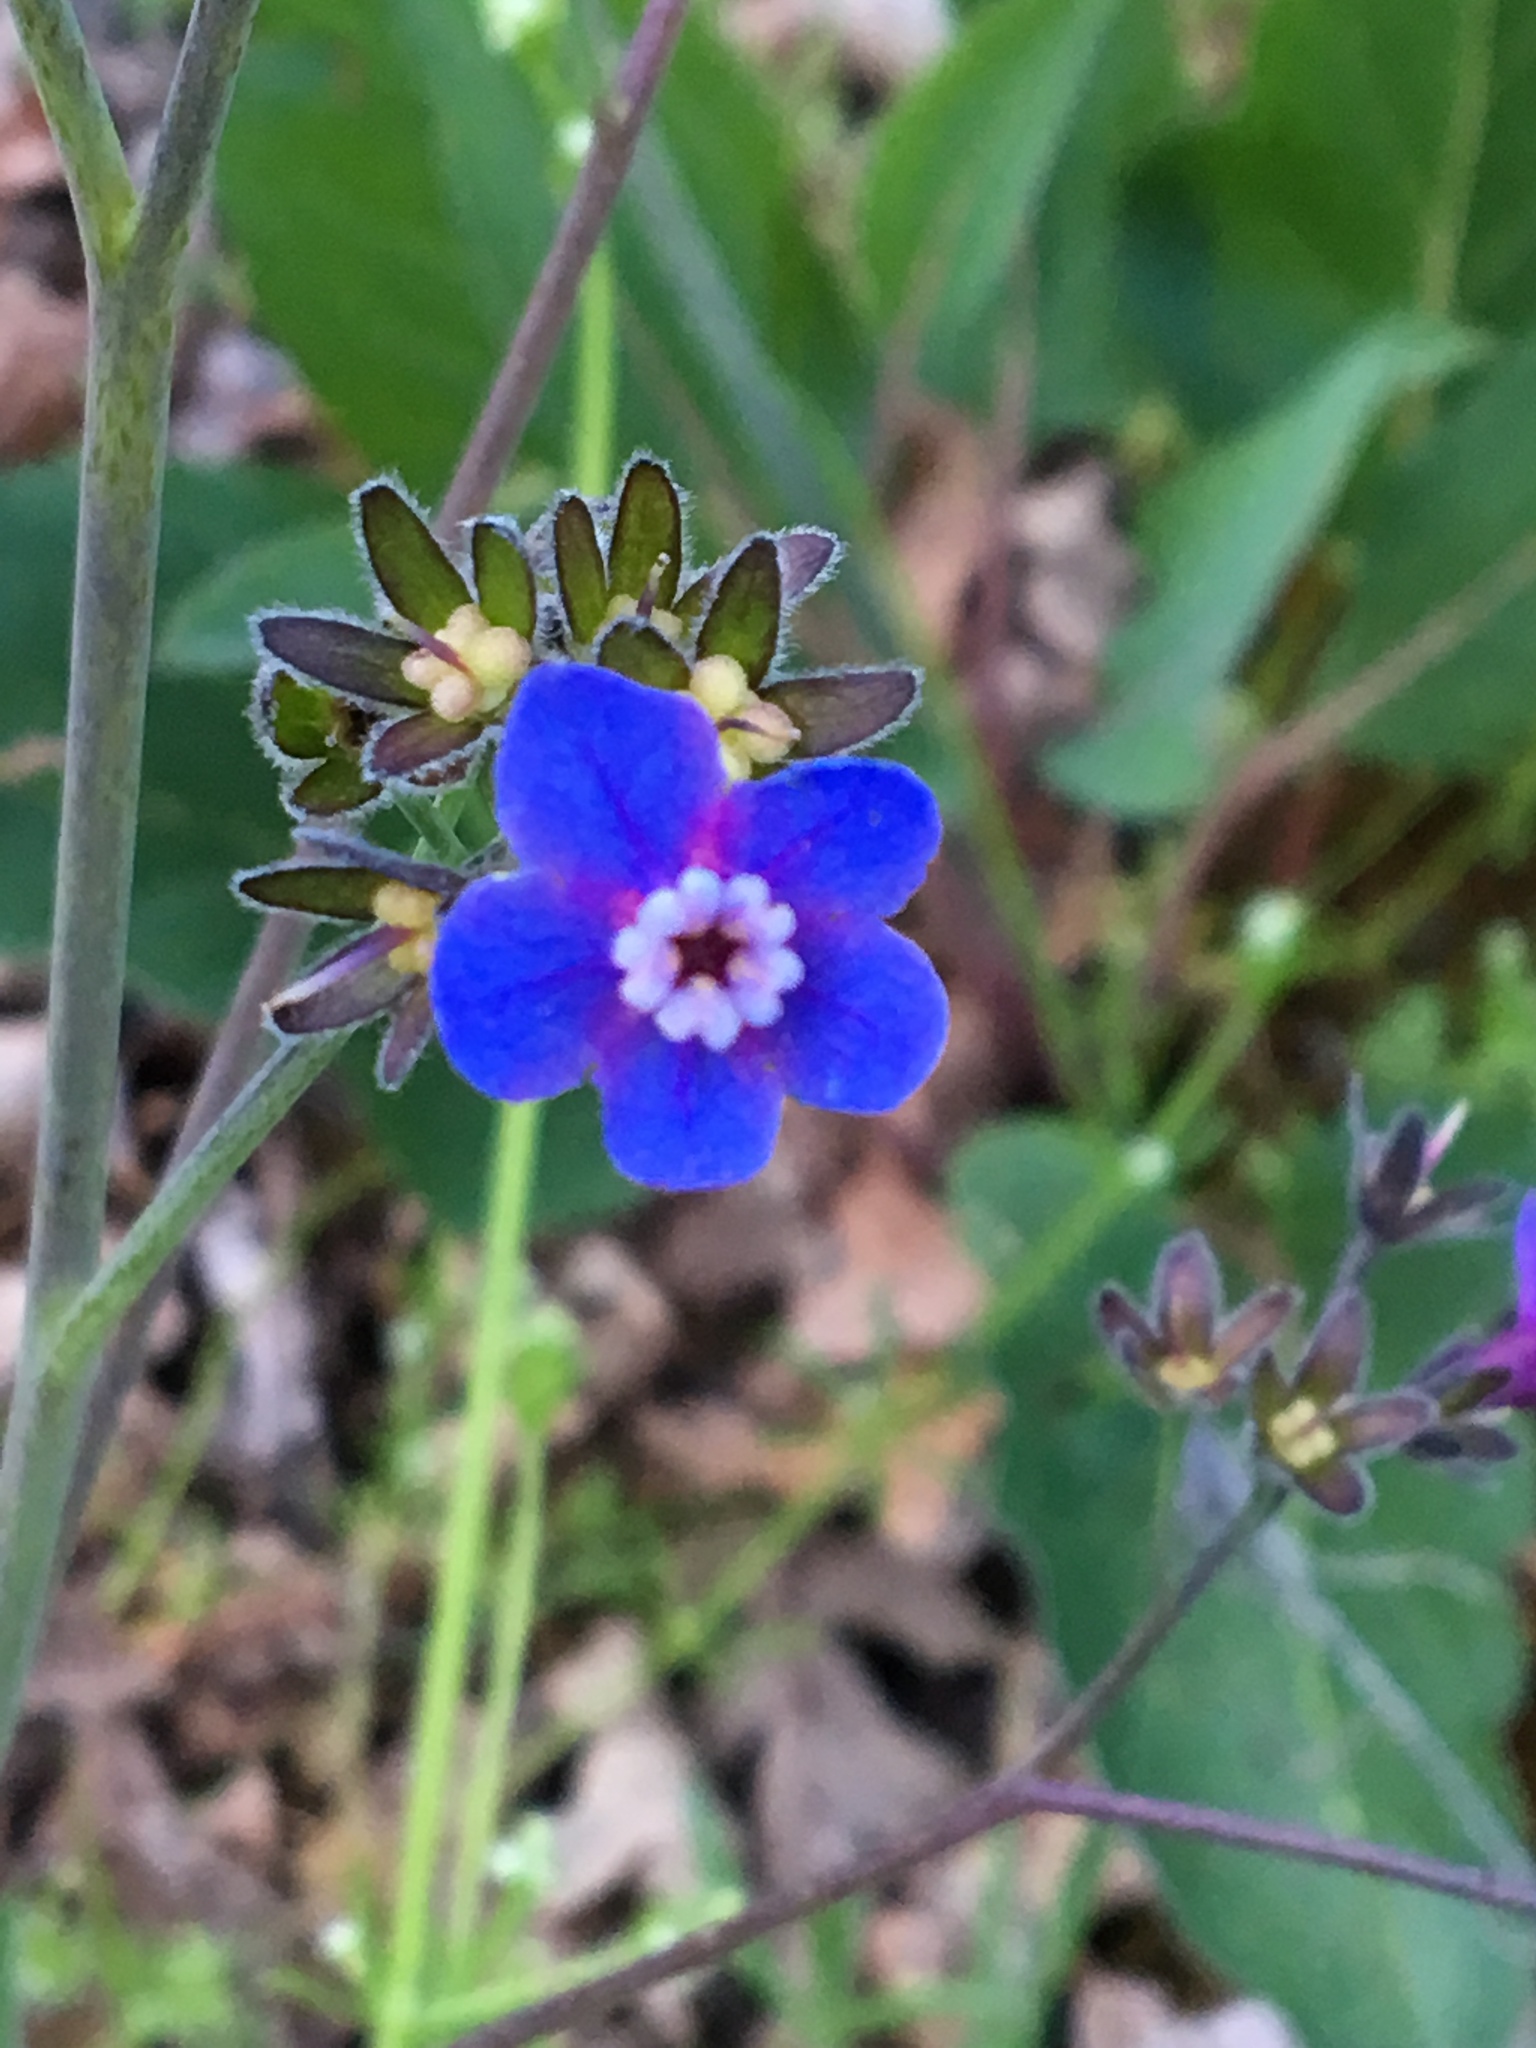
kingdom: Plantae
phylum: Tracheophyta
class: Magnoliopsida
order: Boraginales
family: Boraginaceae
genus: Adelinia
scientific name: Adelinia grande
